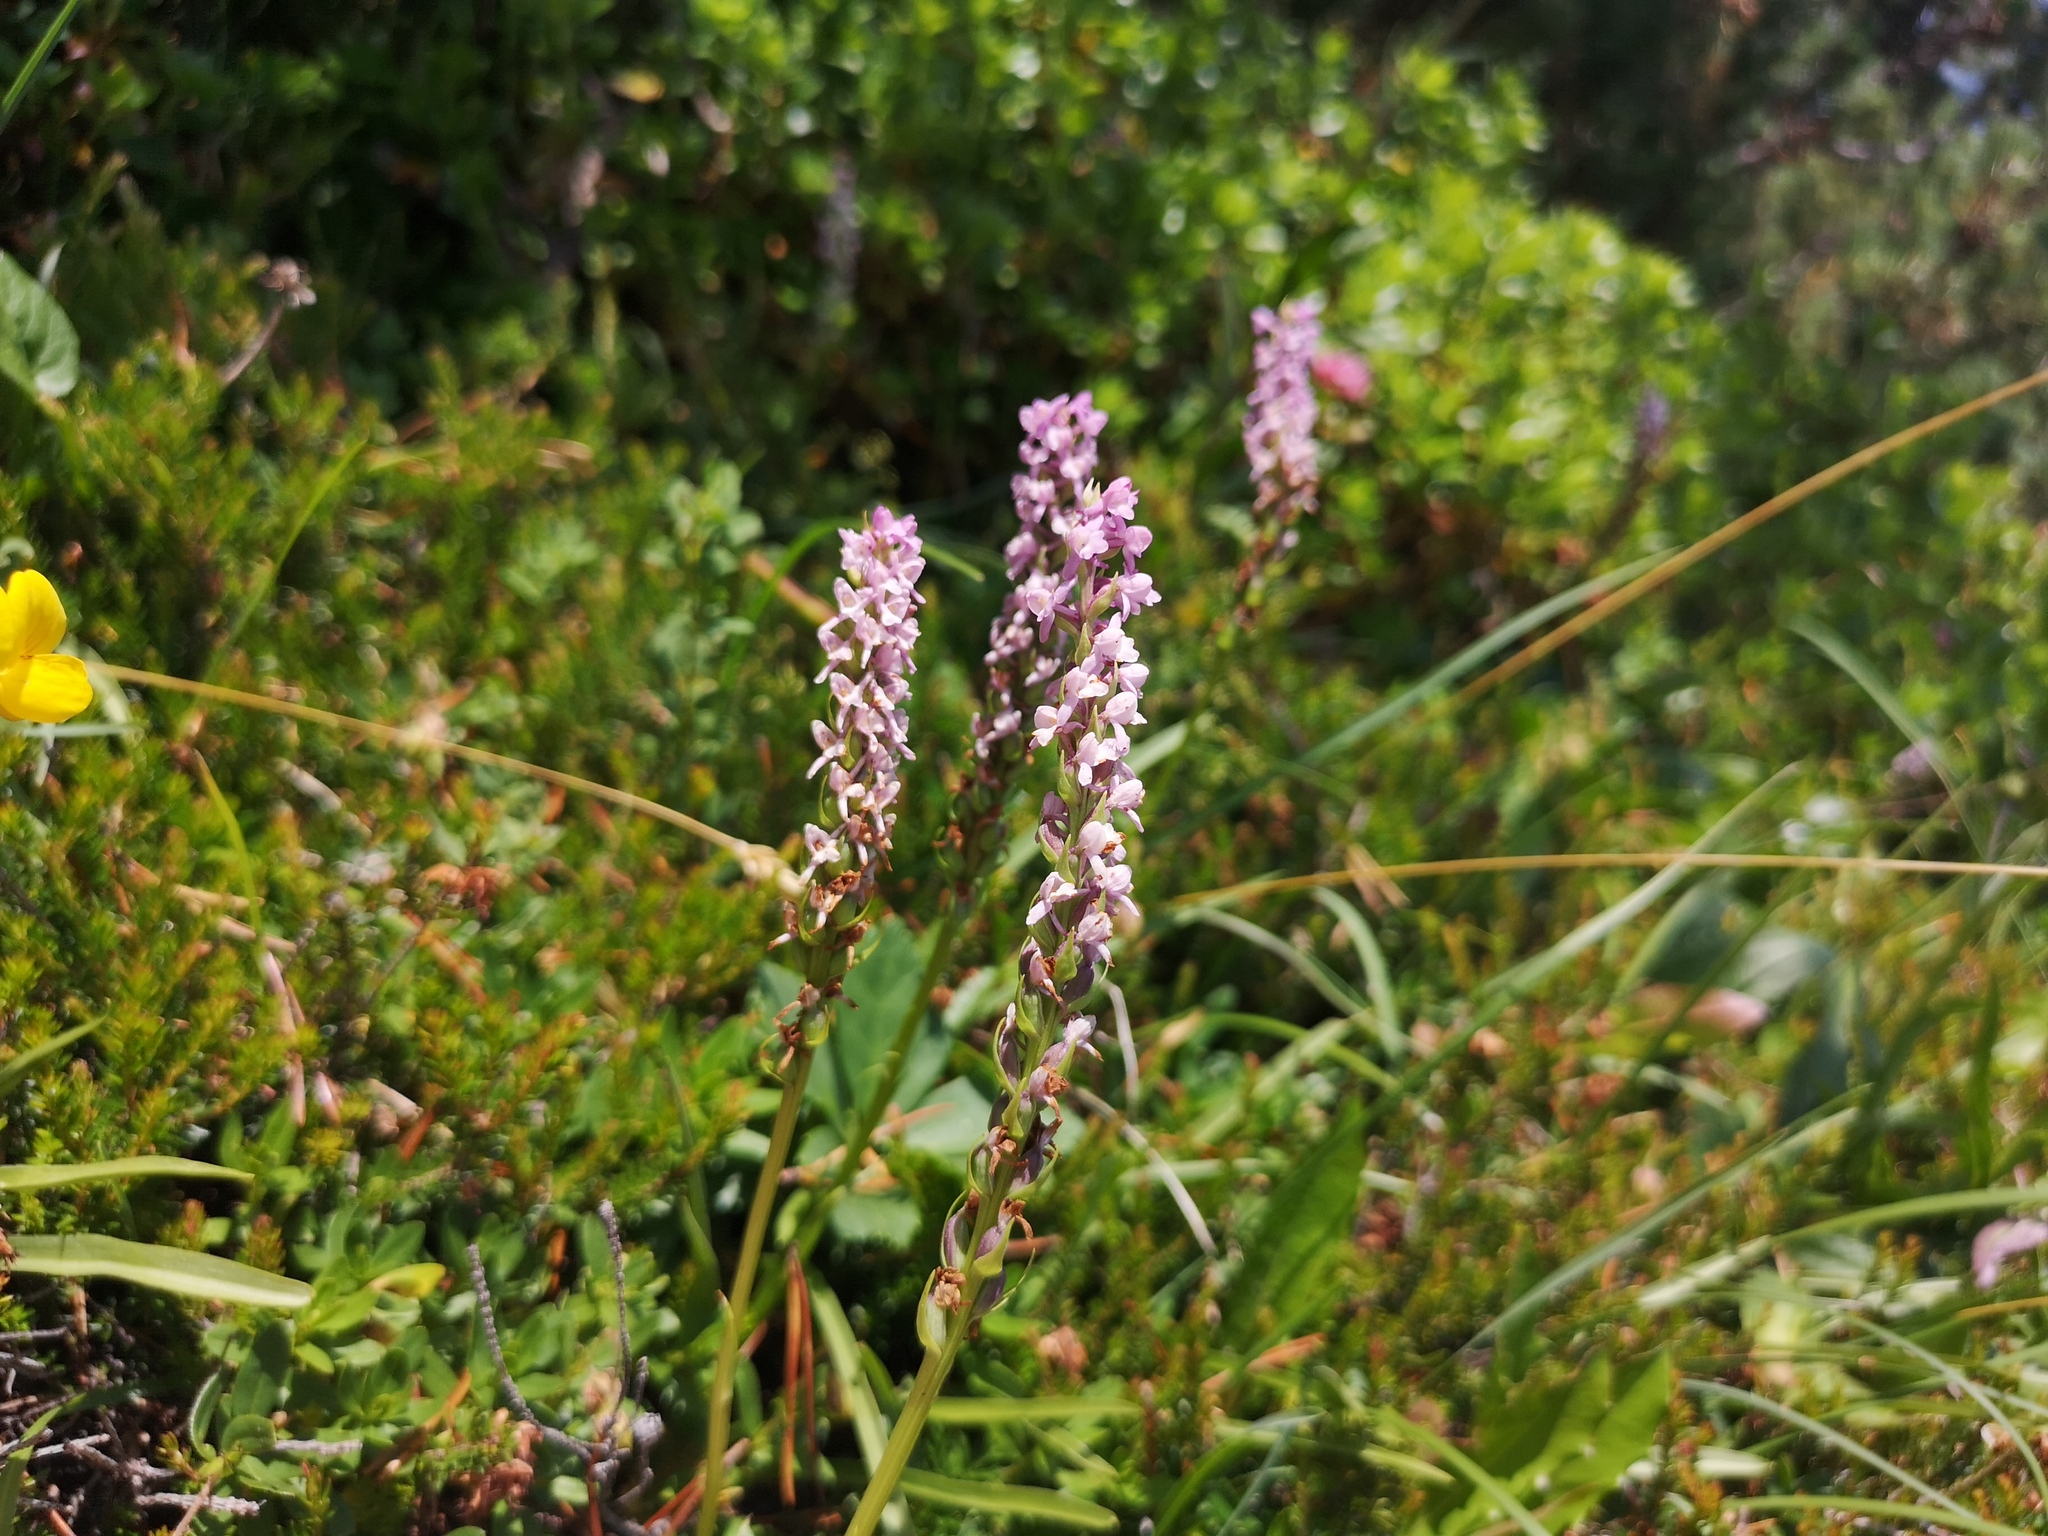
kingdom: Plantae
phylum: Tracheophyta
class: Liliopsida
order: Asparagales
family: Orchidaceae
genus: Gymnadenia
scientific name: Gymnadenia odoratissima
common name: Scented gymnadenia
